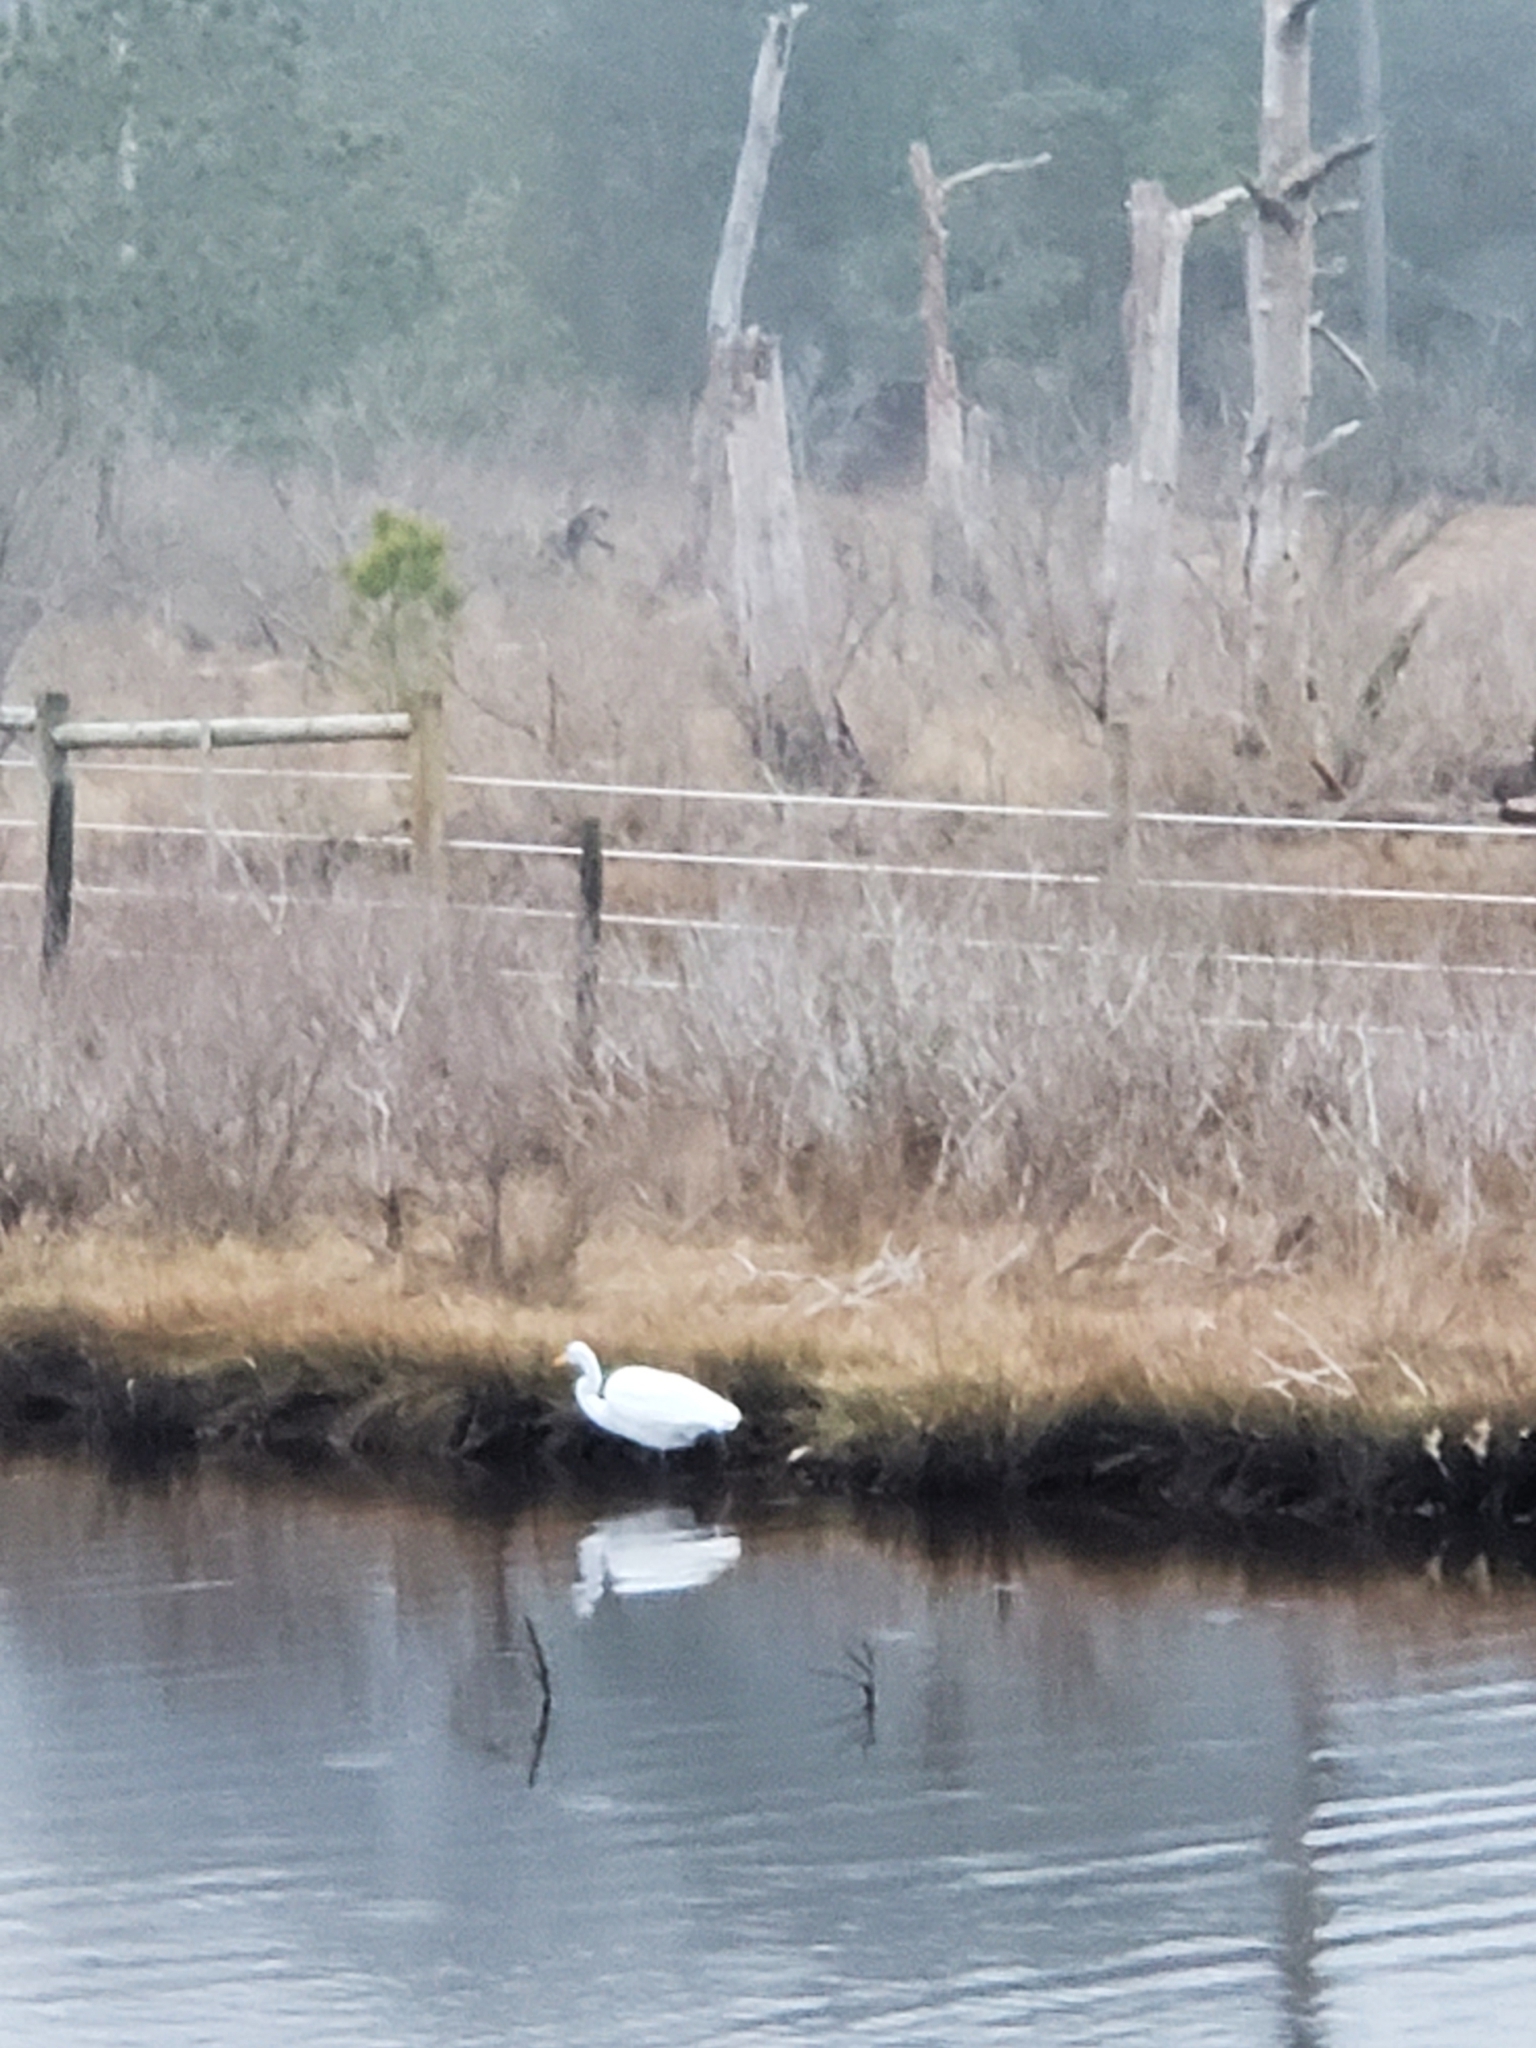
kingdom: Animalia
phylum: Chordata
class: Aves
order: Pelecaniformes
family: Ardeidae
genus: Ardea
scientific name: Ardea alba
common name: Great egret
